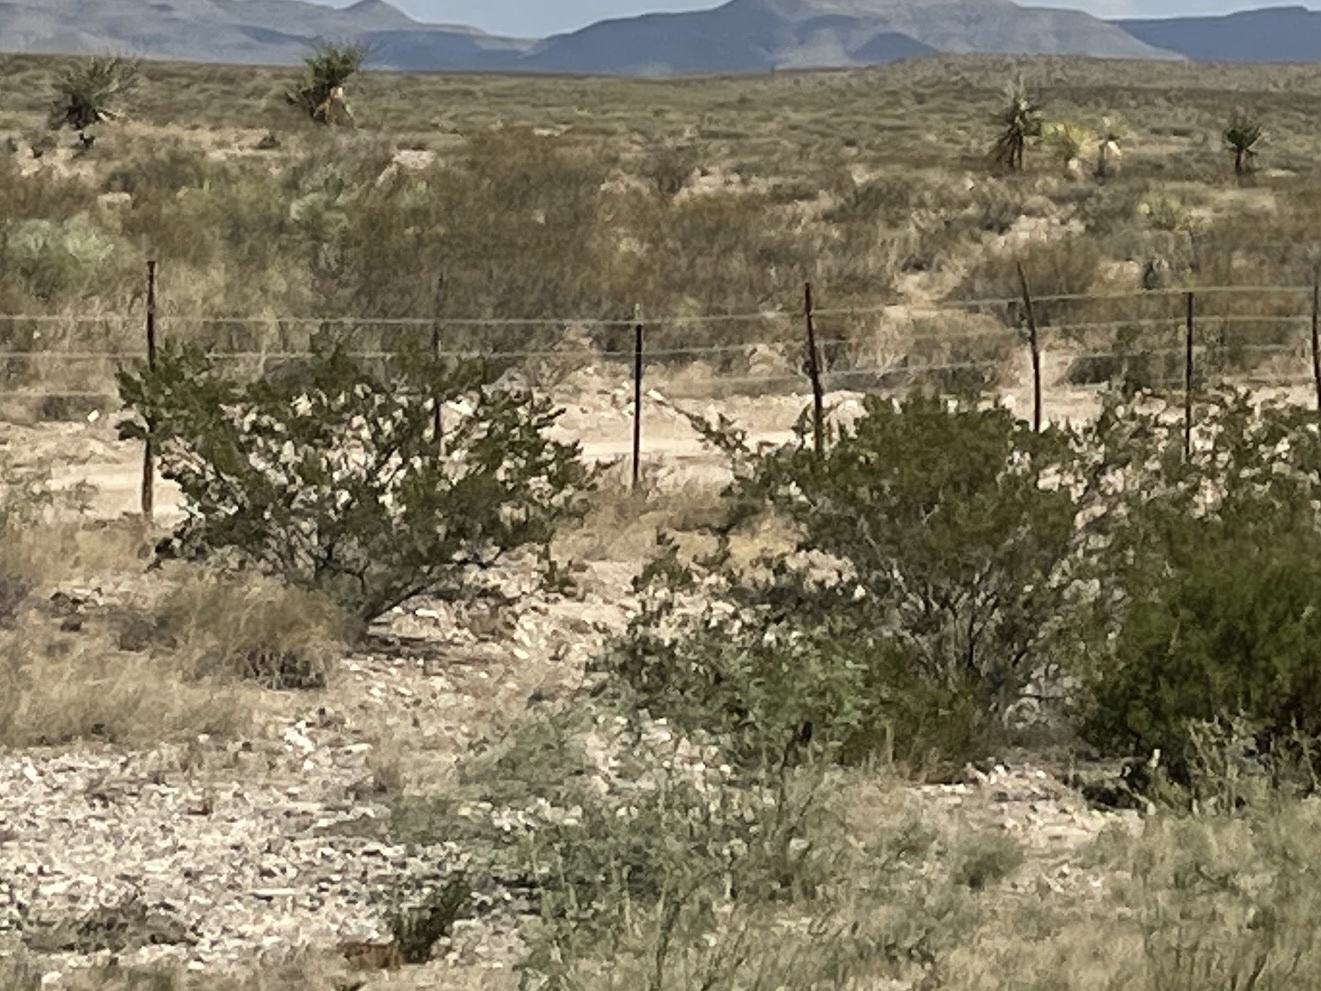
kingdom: Plantae
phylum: Tracheophyta
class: Magnoliopsida
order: Zygophyllales
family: Zygophyllaceae
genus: Larrea
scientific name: Larrea tridentata
